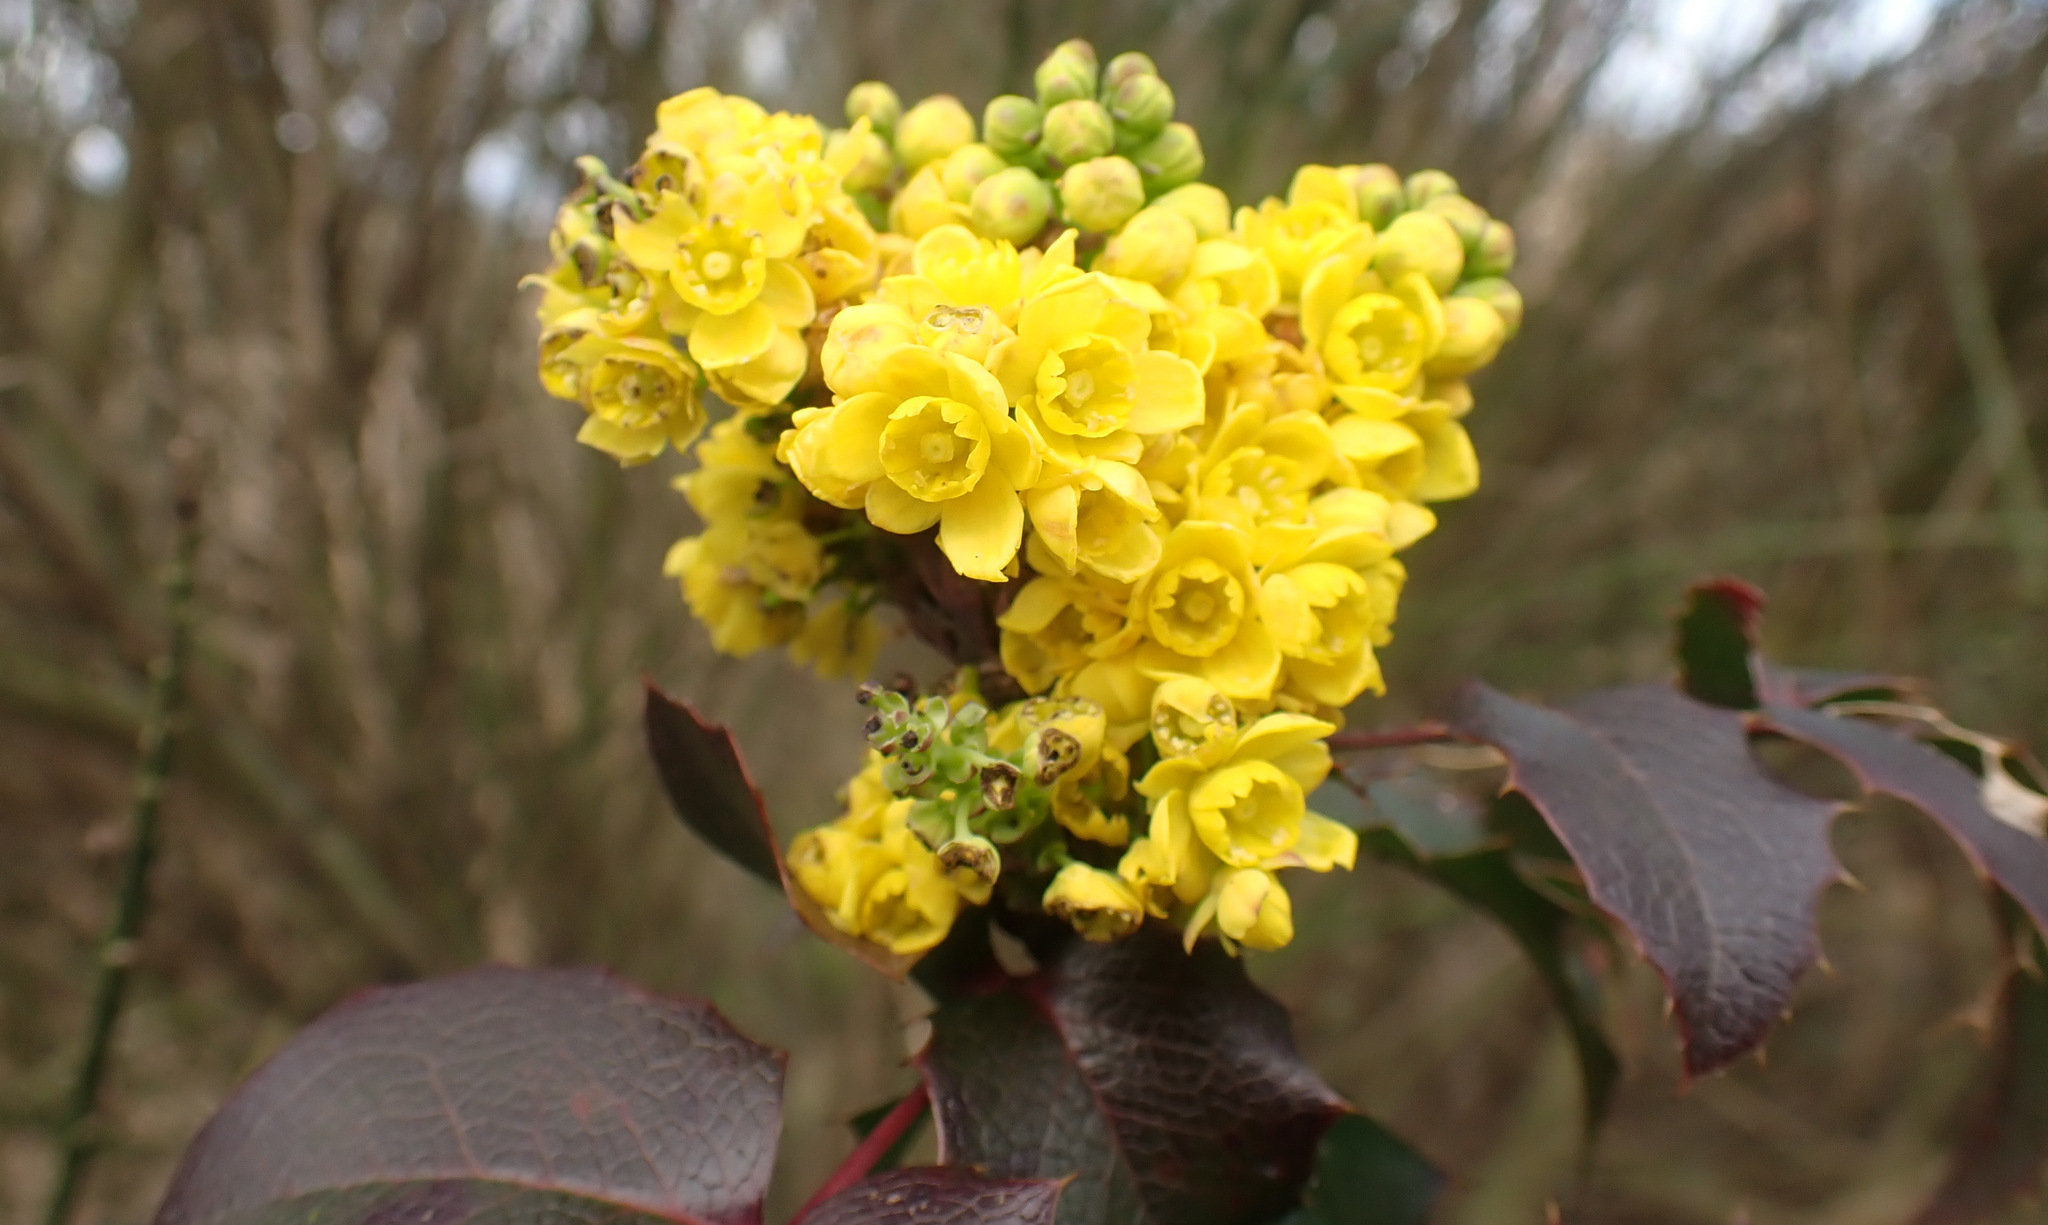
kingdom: Plantae
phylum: Tracheophyta
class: Magnoliopsida
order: Ranunculales
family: Berberidaceae
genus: Mahonia
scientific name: Mahonia aquifolium
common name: Oregon-grape
